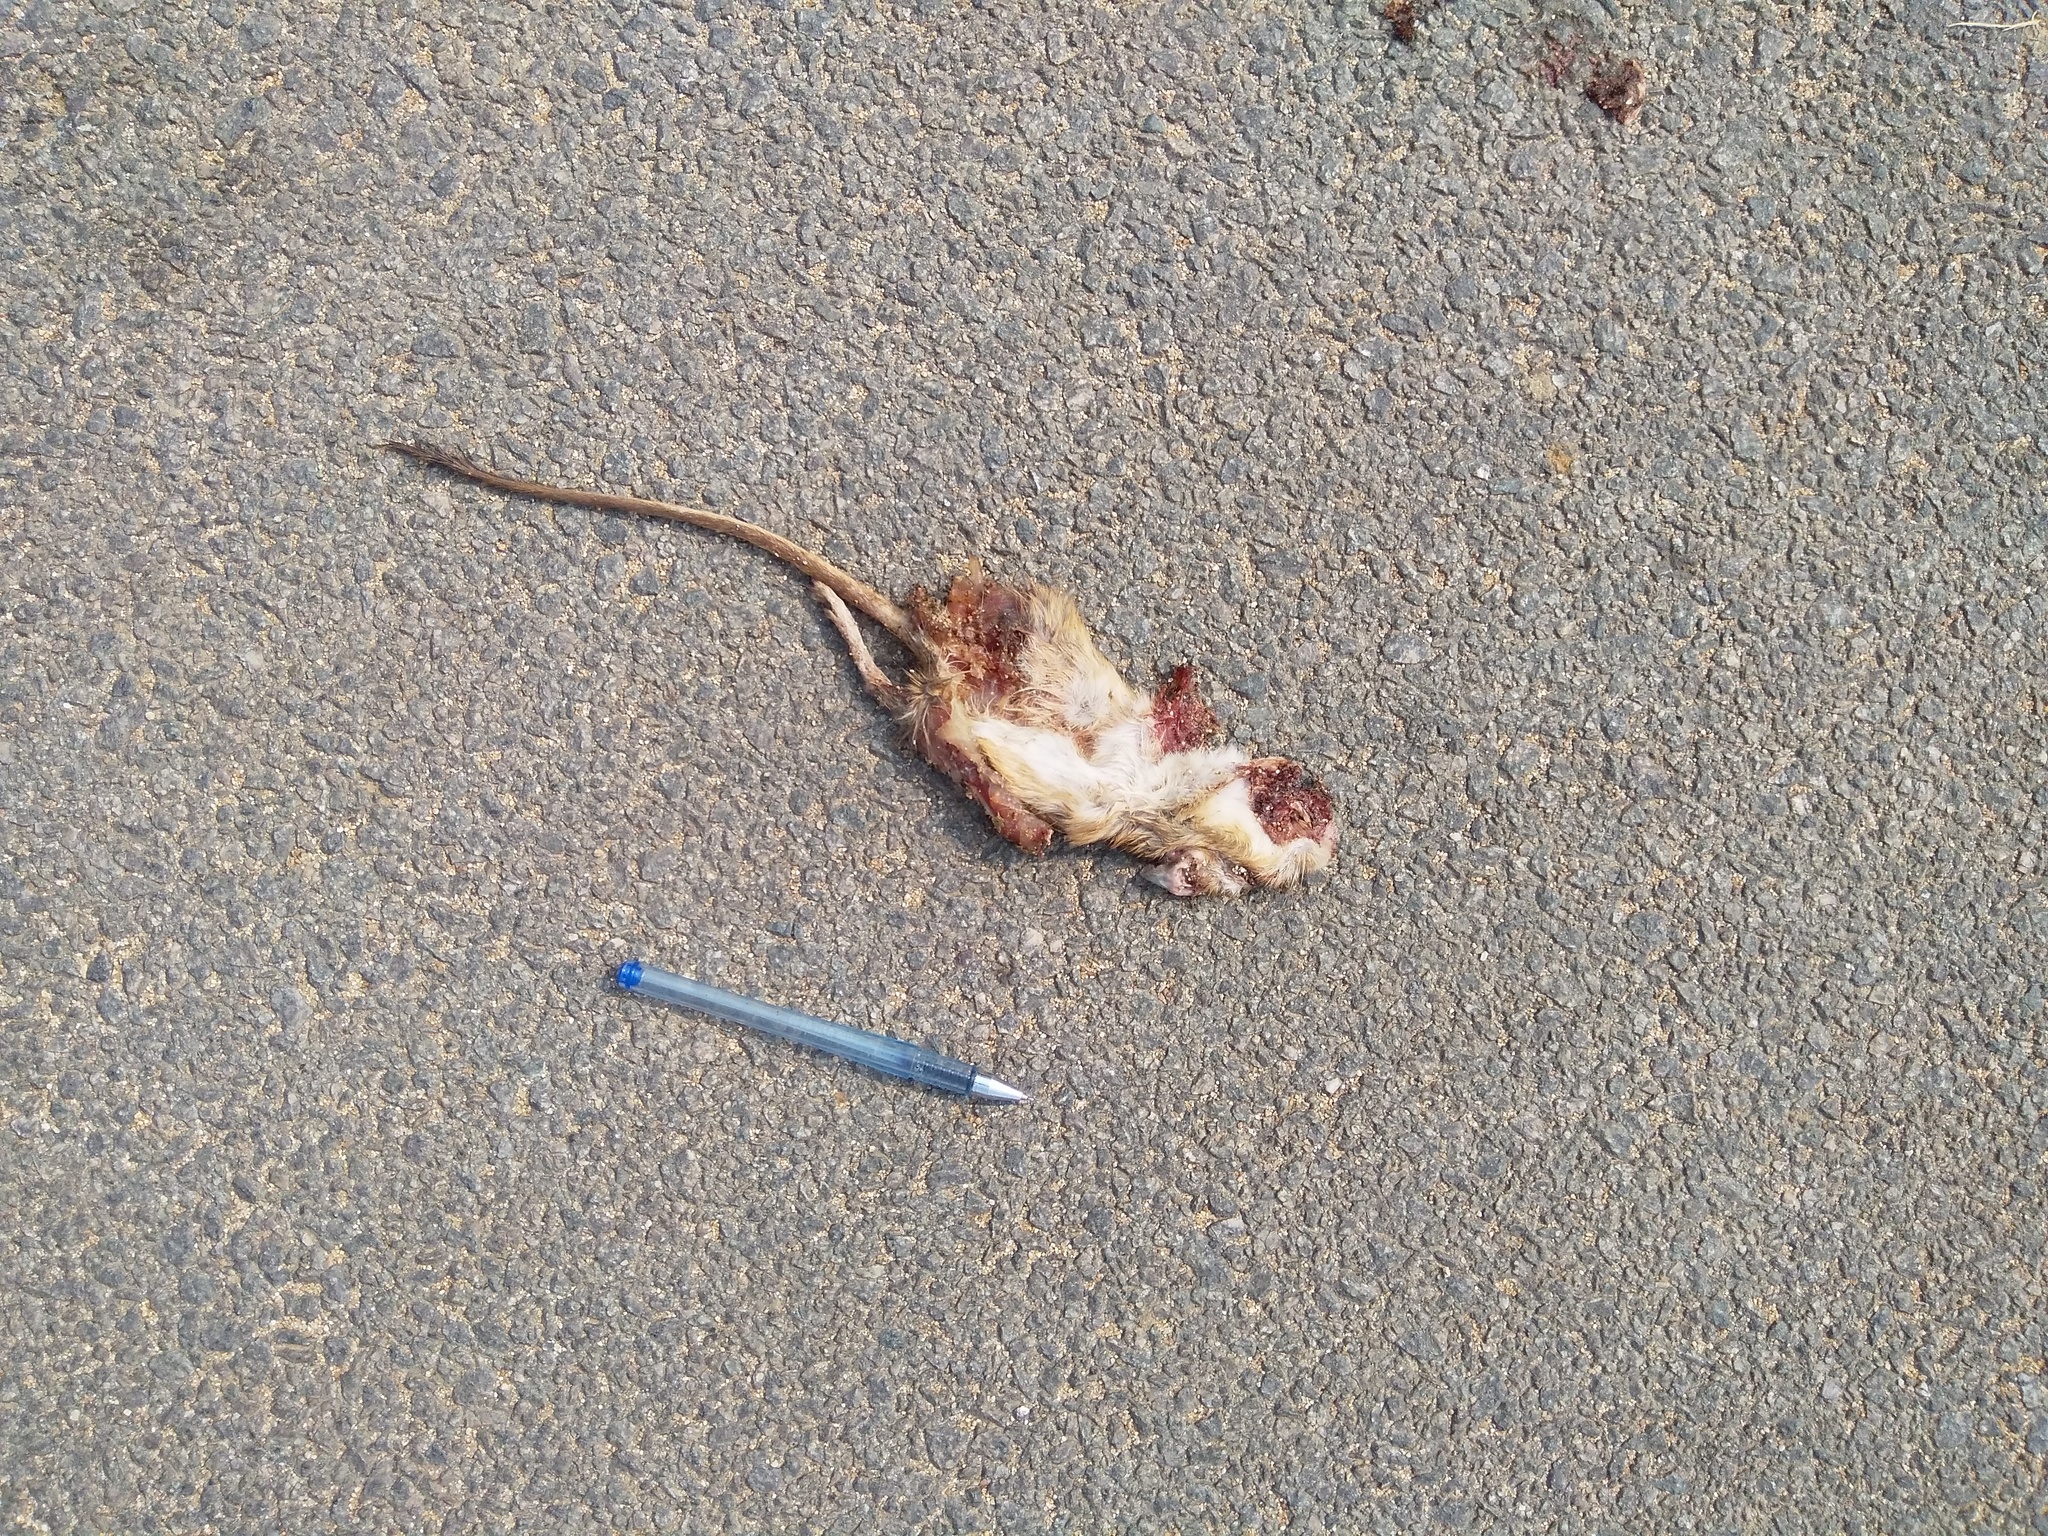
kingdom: Animalia
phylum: Chordata
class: Mammalia
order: Rodentia
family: Muridae
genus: Tatera
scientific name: Tatera indica
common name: Indian gerbil
